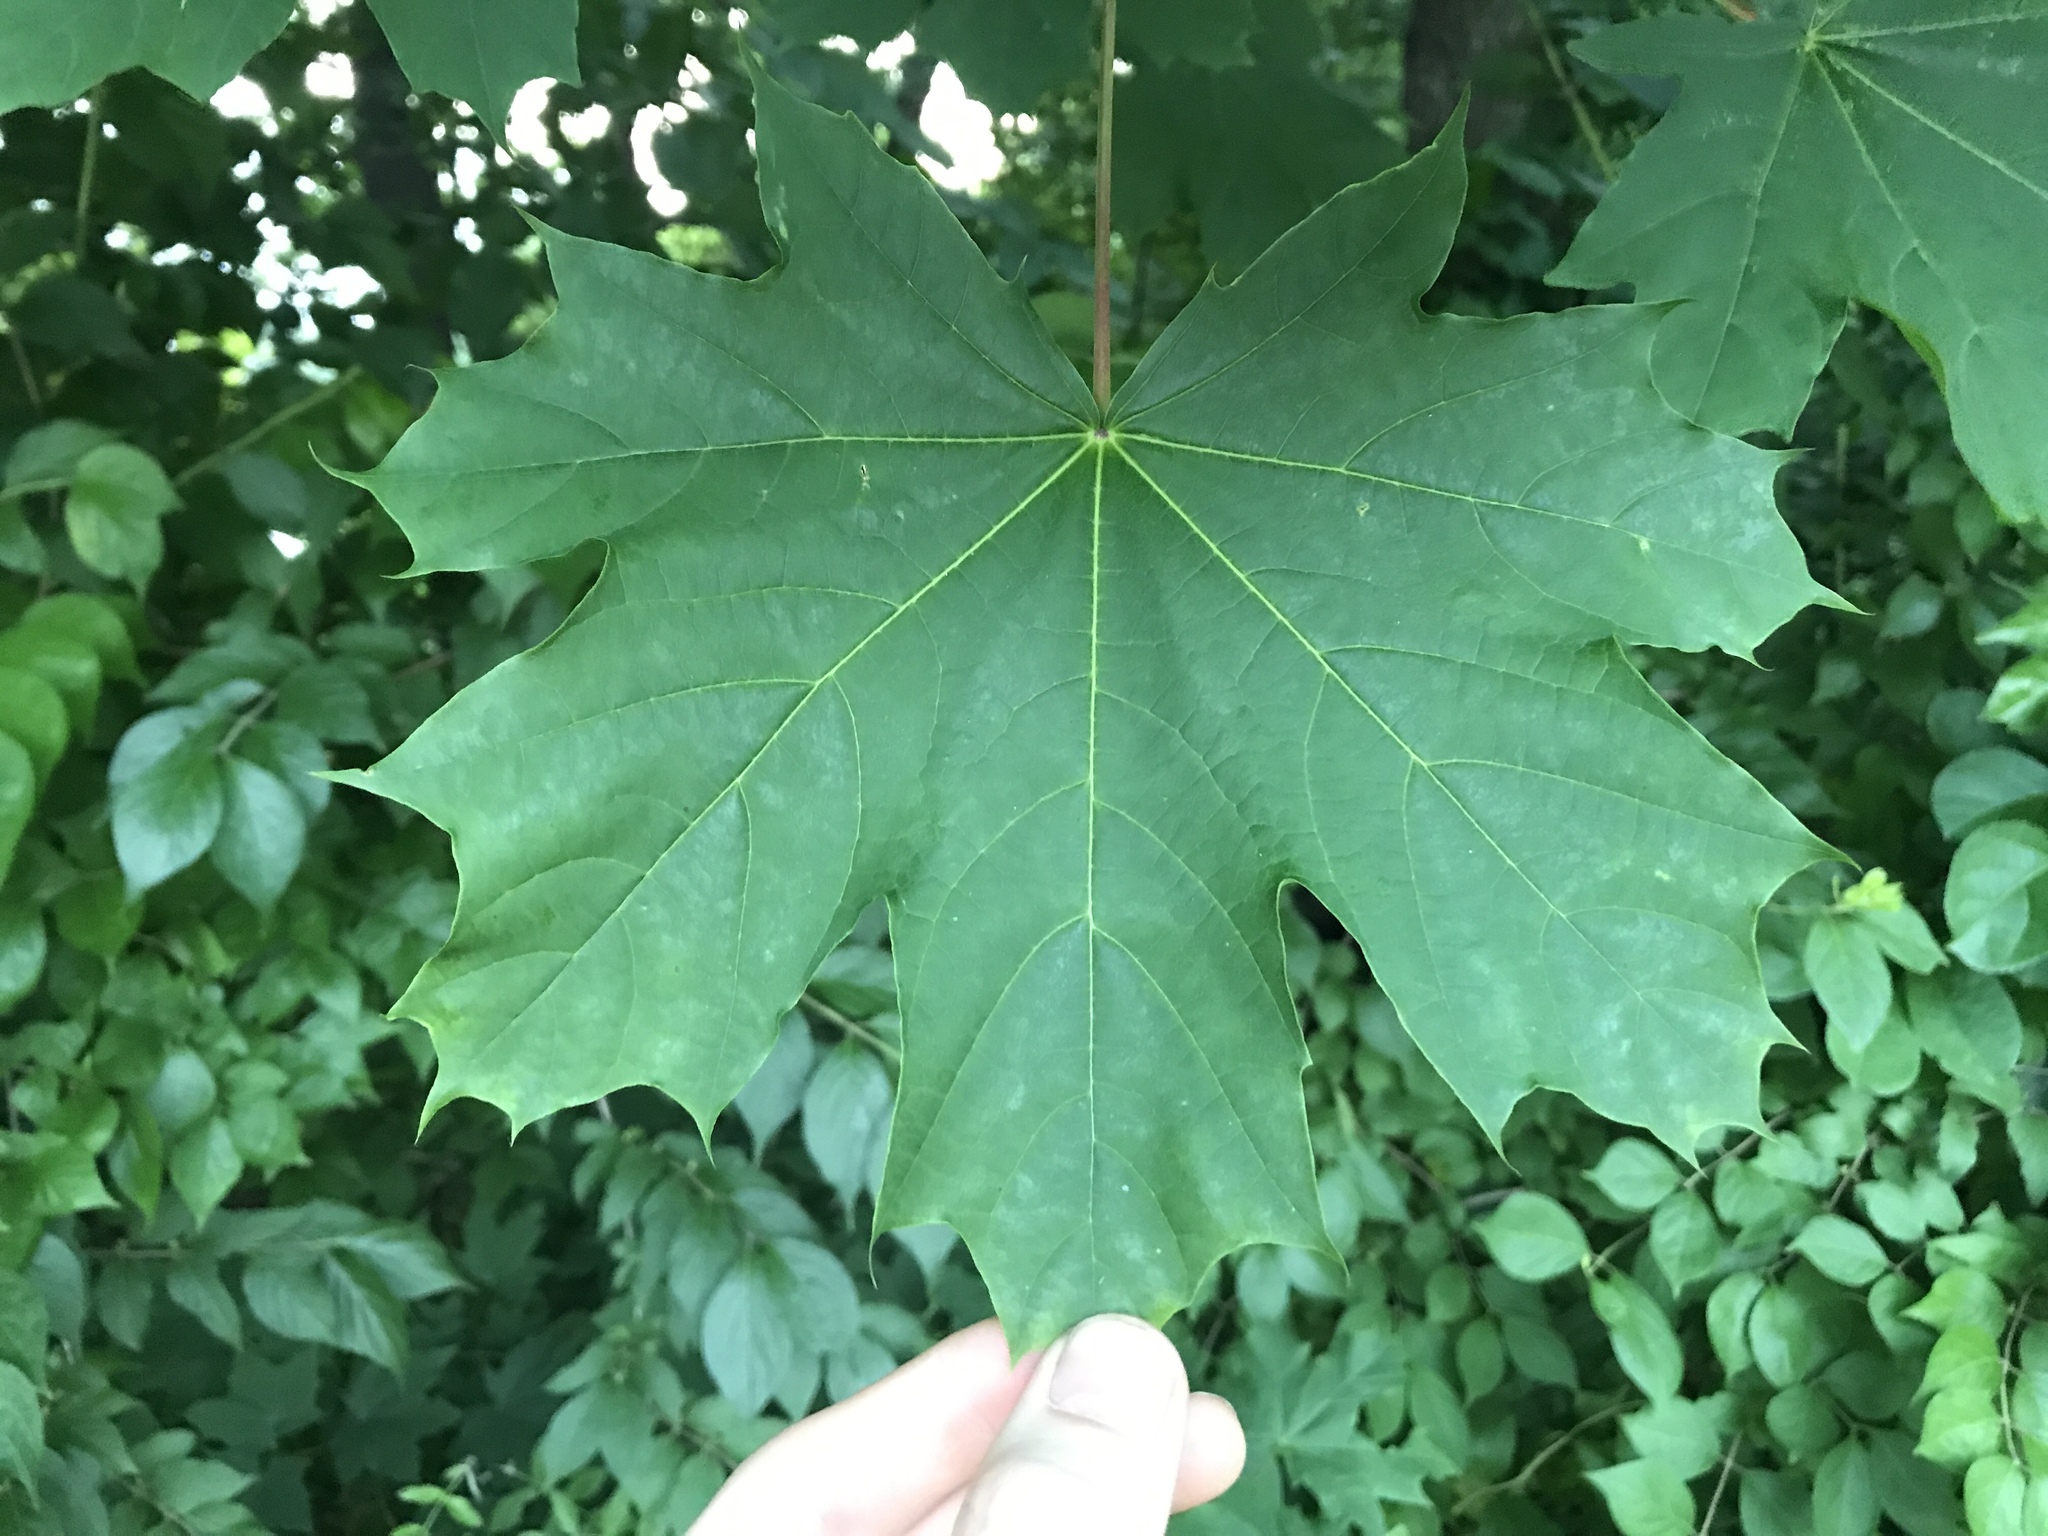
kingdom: Plantae
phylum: Tracheophyta
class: Magnoliopsida
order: Sapindales
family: Sapindaceae
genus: Acer
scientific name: Acer platanoides
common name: Norway maple
